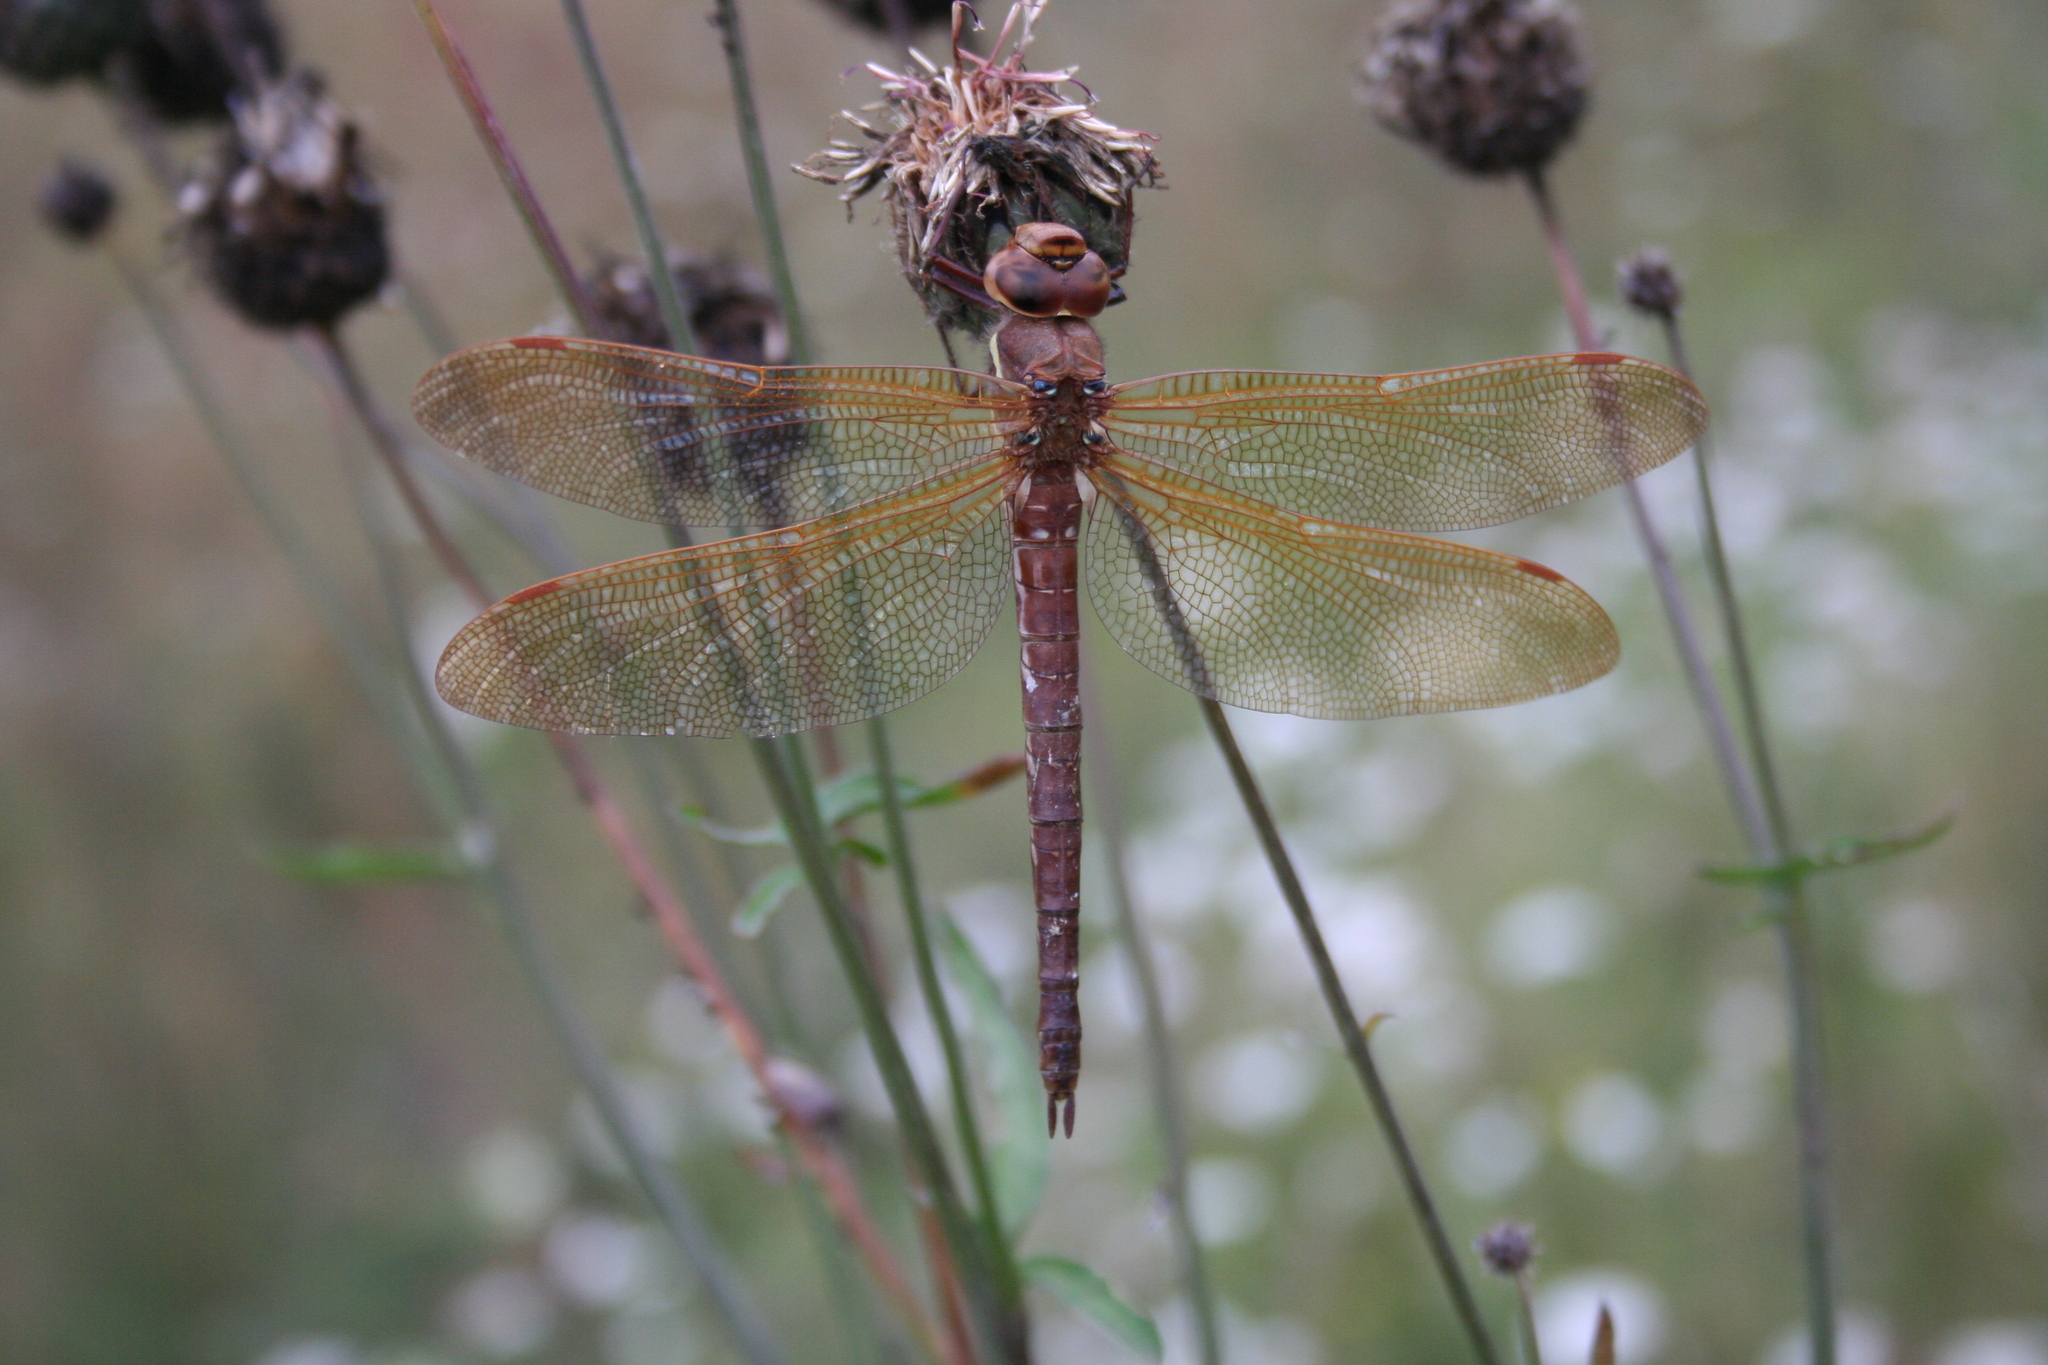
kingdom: Animalia
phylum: Arthropoda
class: Insecta
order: Odonata
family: Aeshnidae
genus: Aeshna
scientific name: Aeshna grandis
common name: Brown hawker
